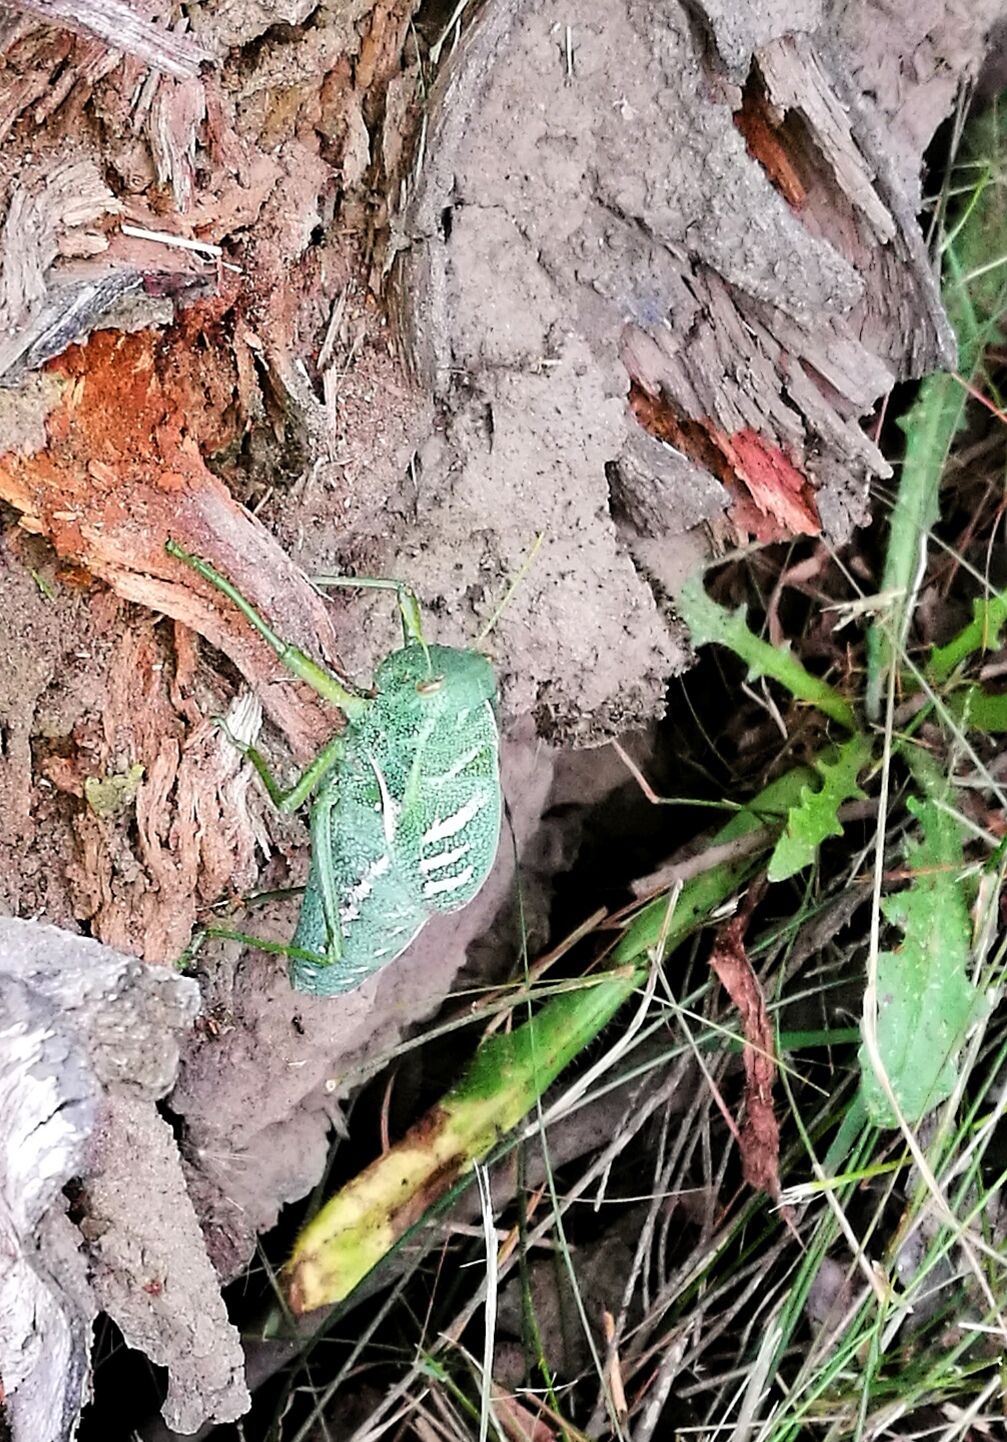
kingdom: Animalia
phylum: Arthropoda
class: Insecta
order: Orthoptera
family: Pneumoridae
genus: Bullacris
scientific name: Bullacris serrata
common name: Bladder grasshopper
